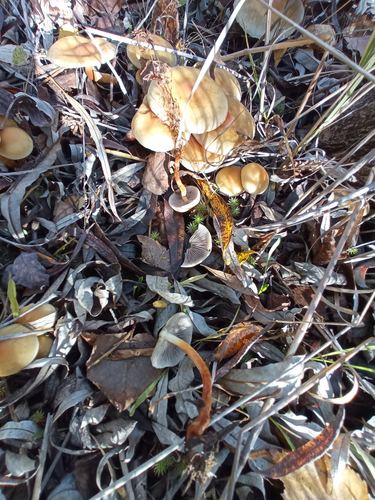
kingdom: Fungi
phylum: Basidiomycota
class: Agaricomycetes
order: Agaricales
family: Strophariaceae
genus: Hypholoma
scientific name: Hypholoma capnoides
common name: Conifer tuft
